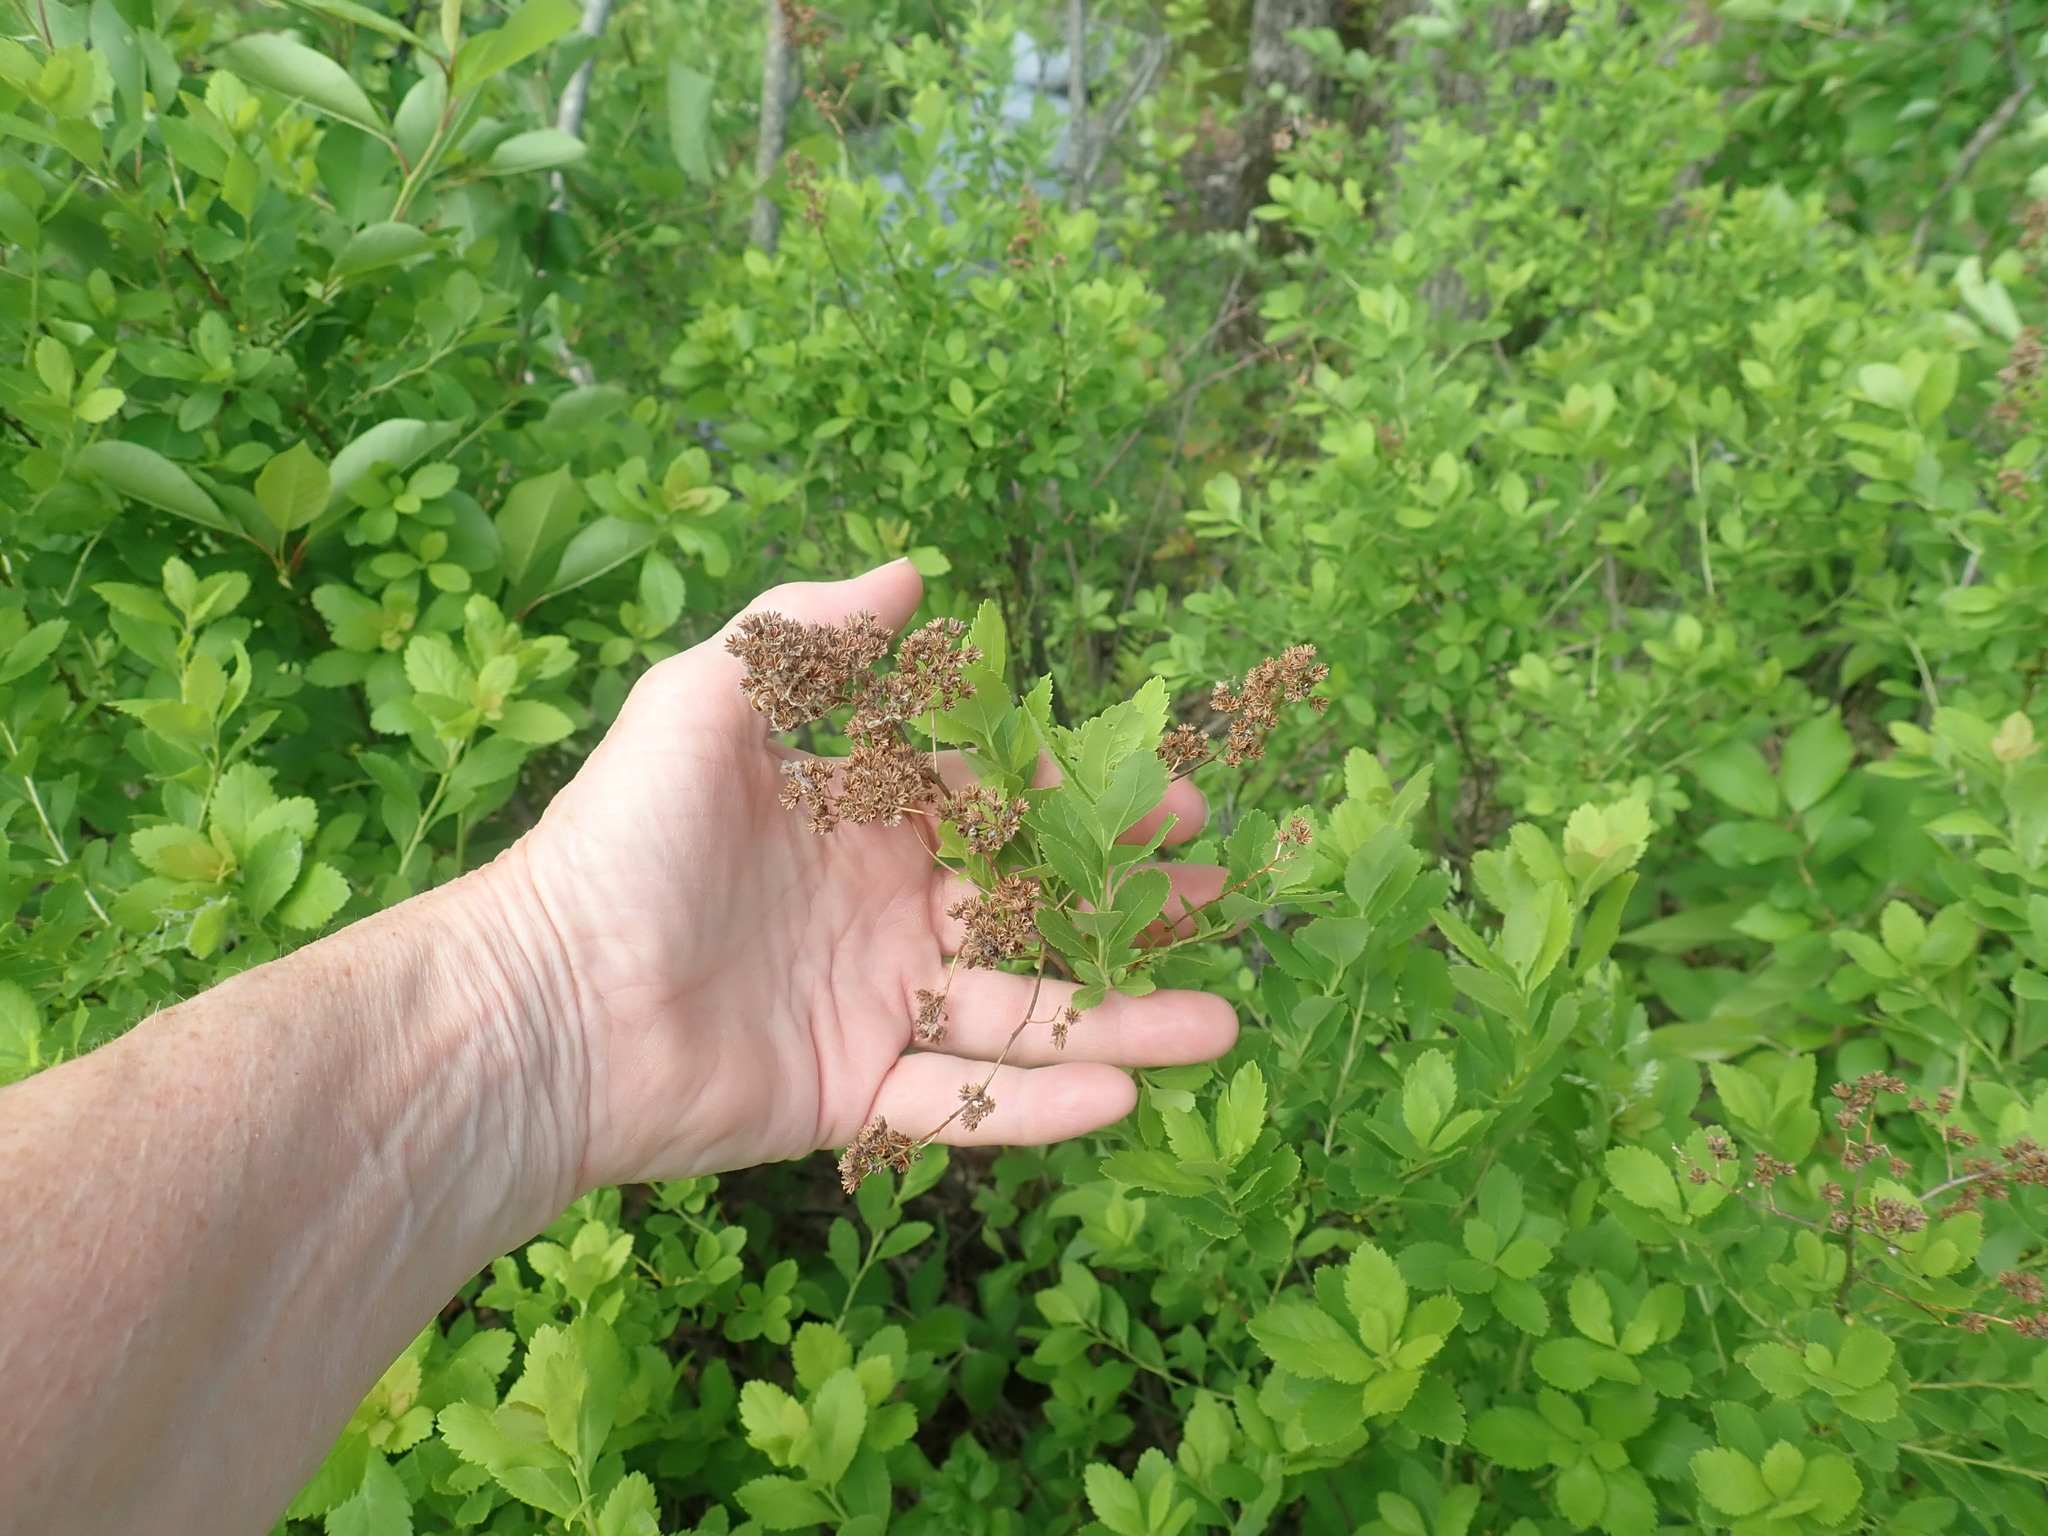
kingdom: Plantae
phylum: Tracheophyta
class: Magnoliopsida
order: Rosales
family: Rosaceae
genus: Spiraea
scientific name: Spiraea alba
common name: Pale bridewort
